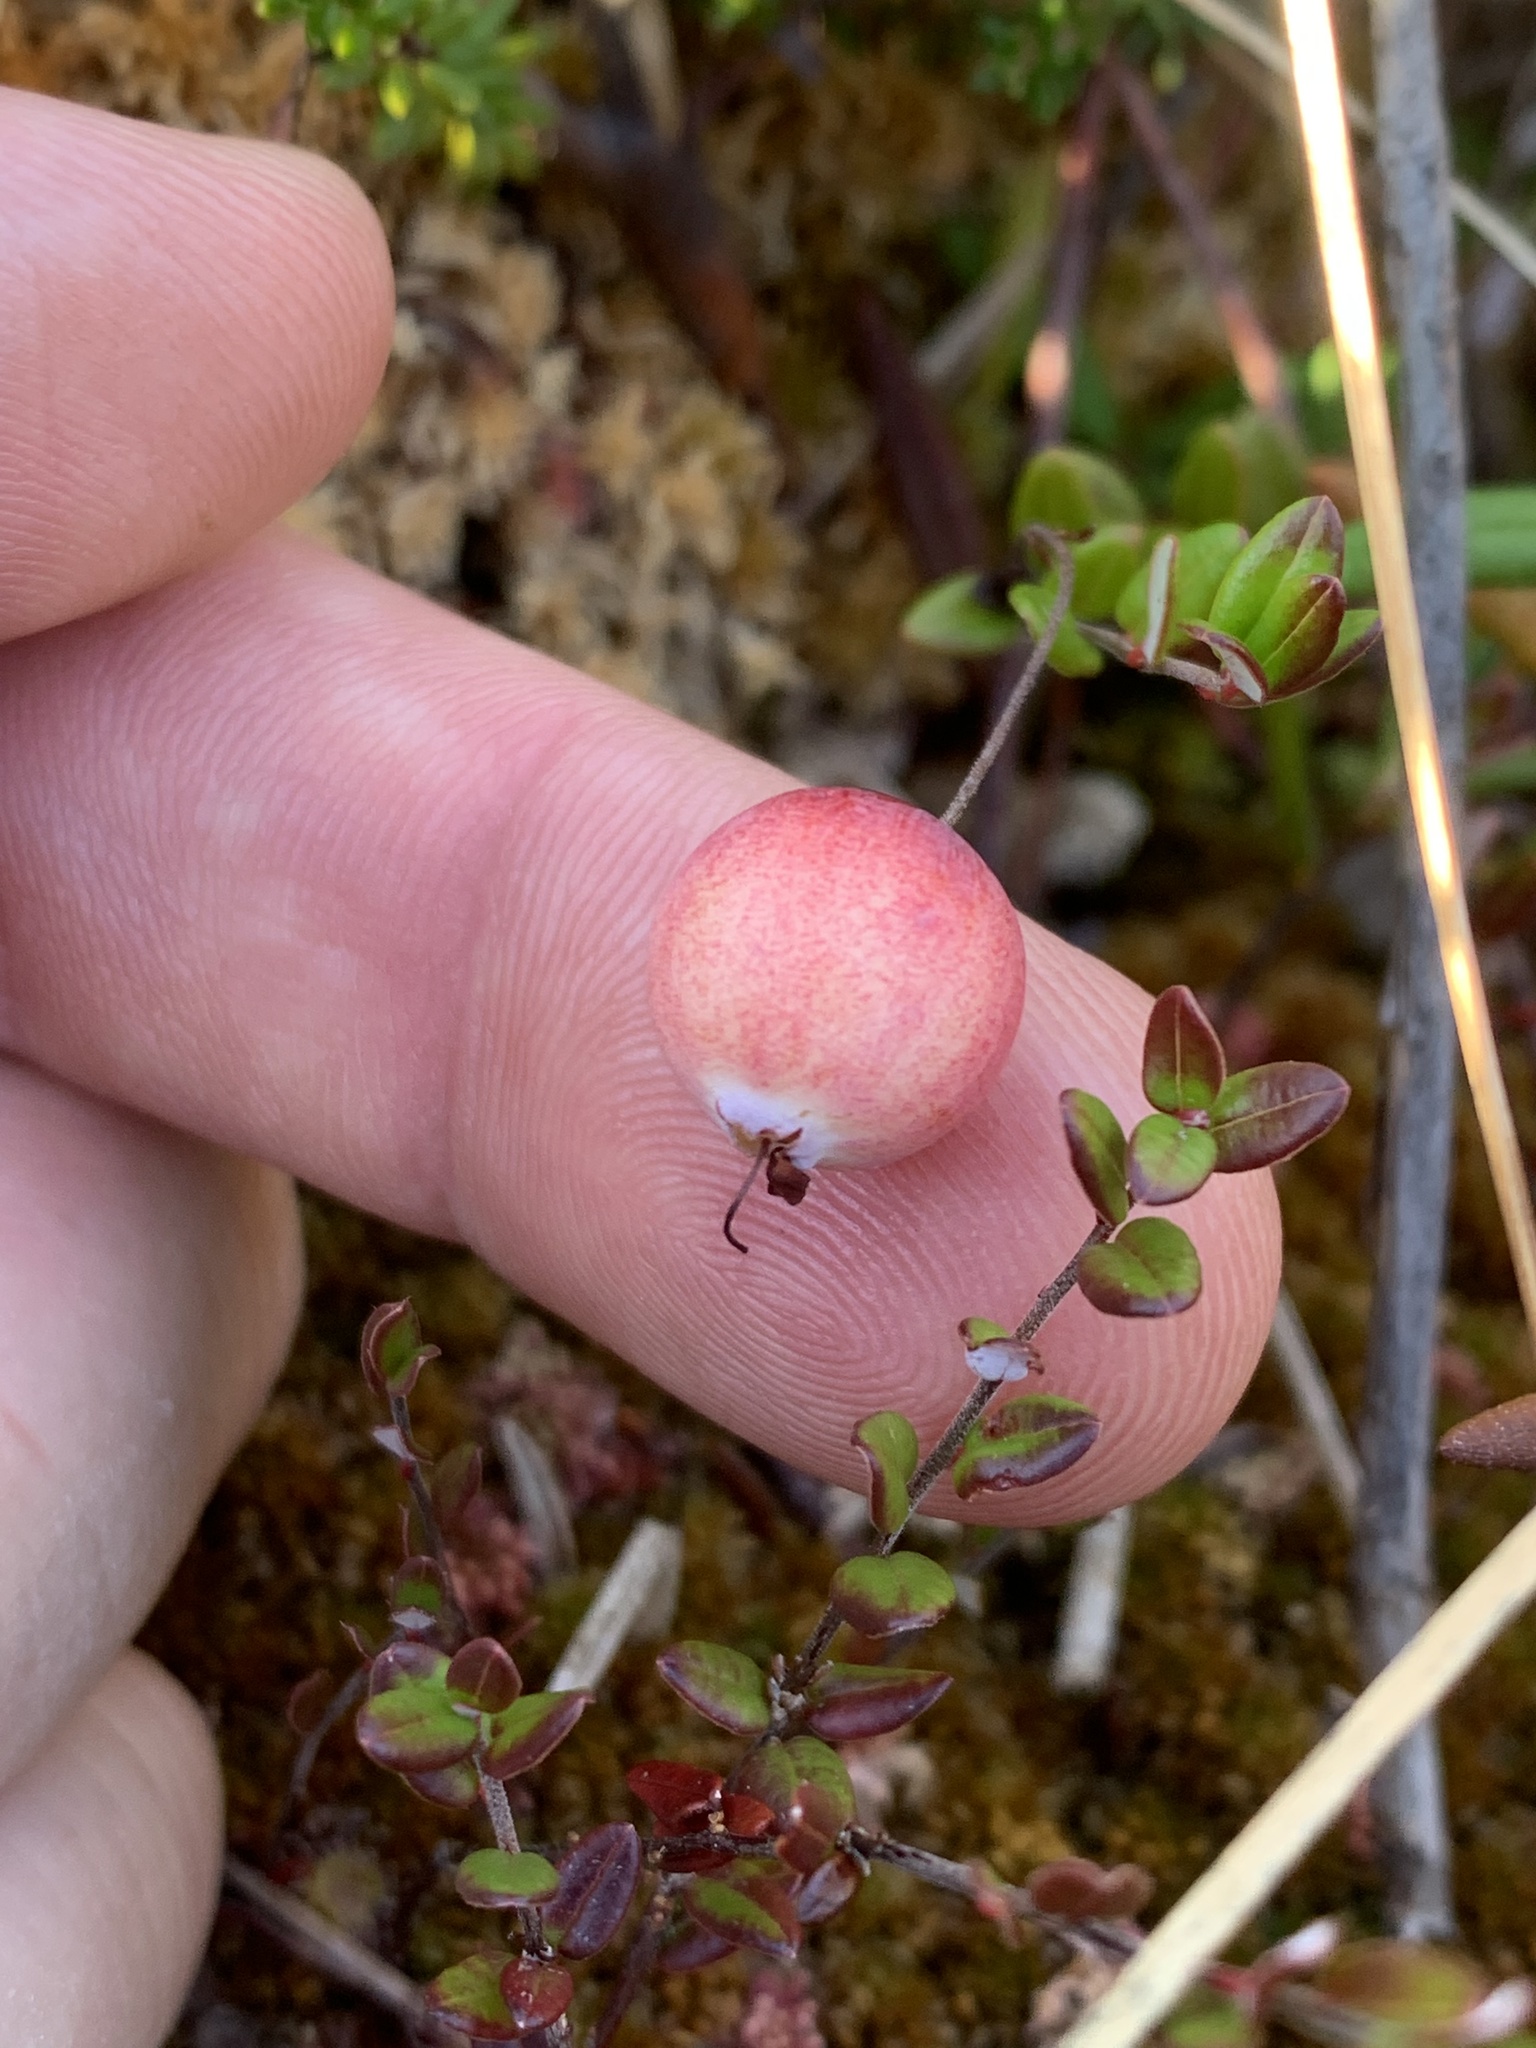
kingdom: Plantae
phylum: Tracheophyta
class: Magnoliopsida
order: Ericales
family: Ericaceae
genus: Vaccinium
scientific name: Vaccinium oxycoccos
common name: Cranberry
